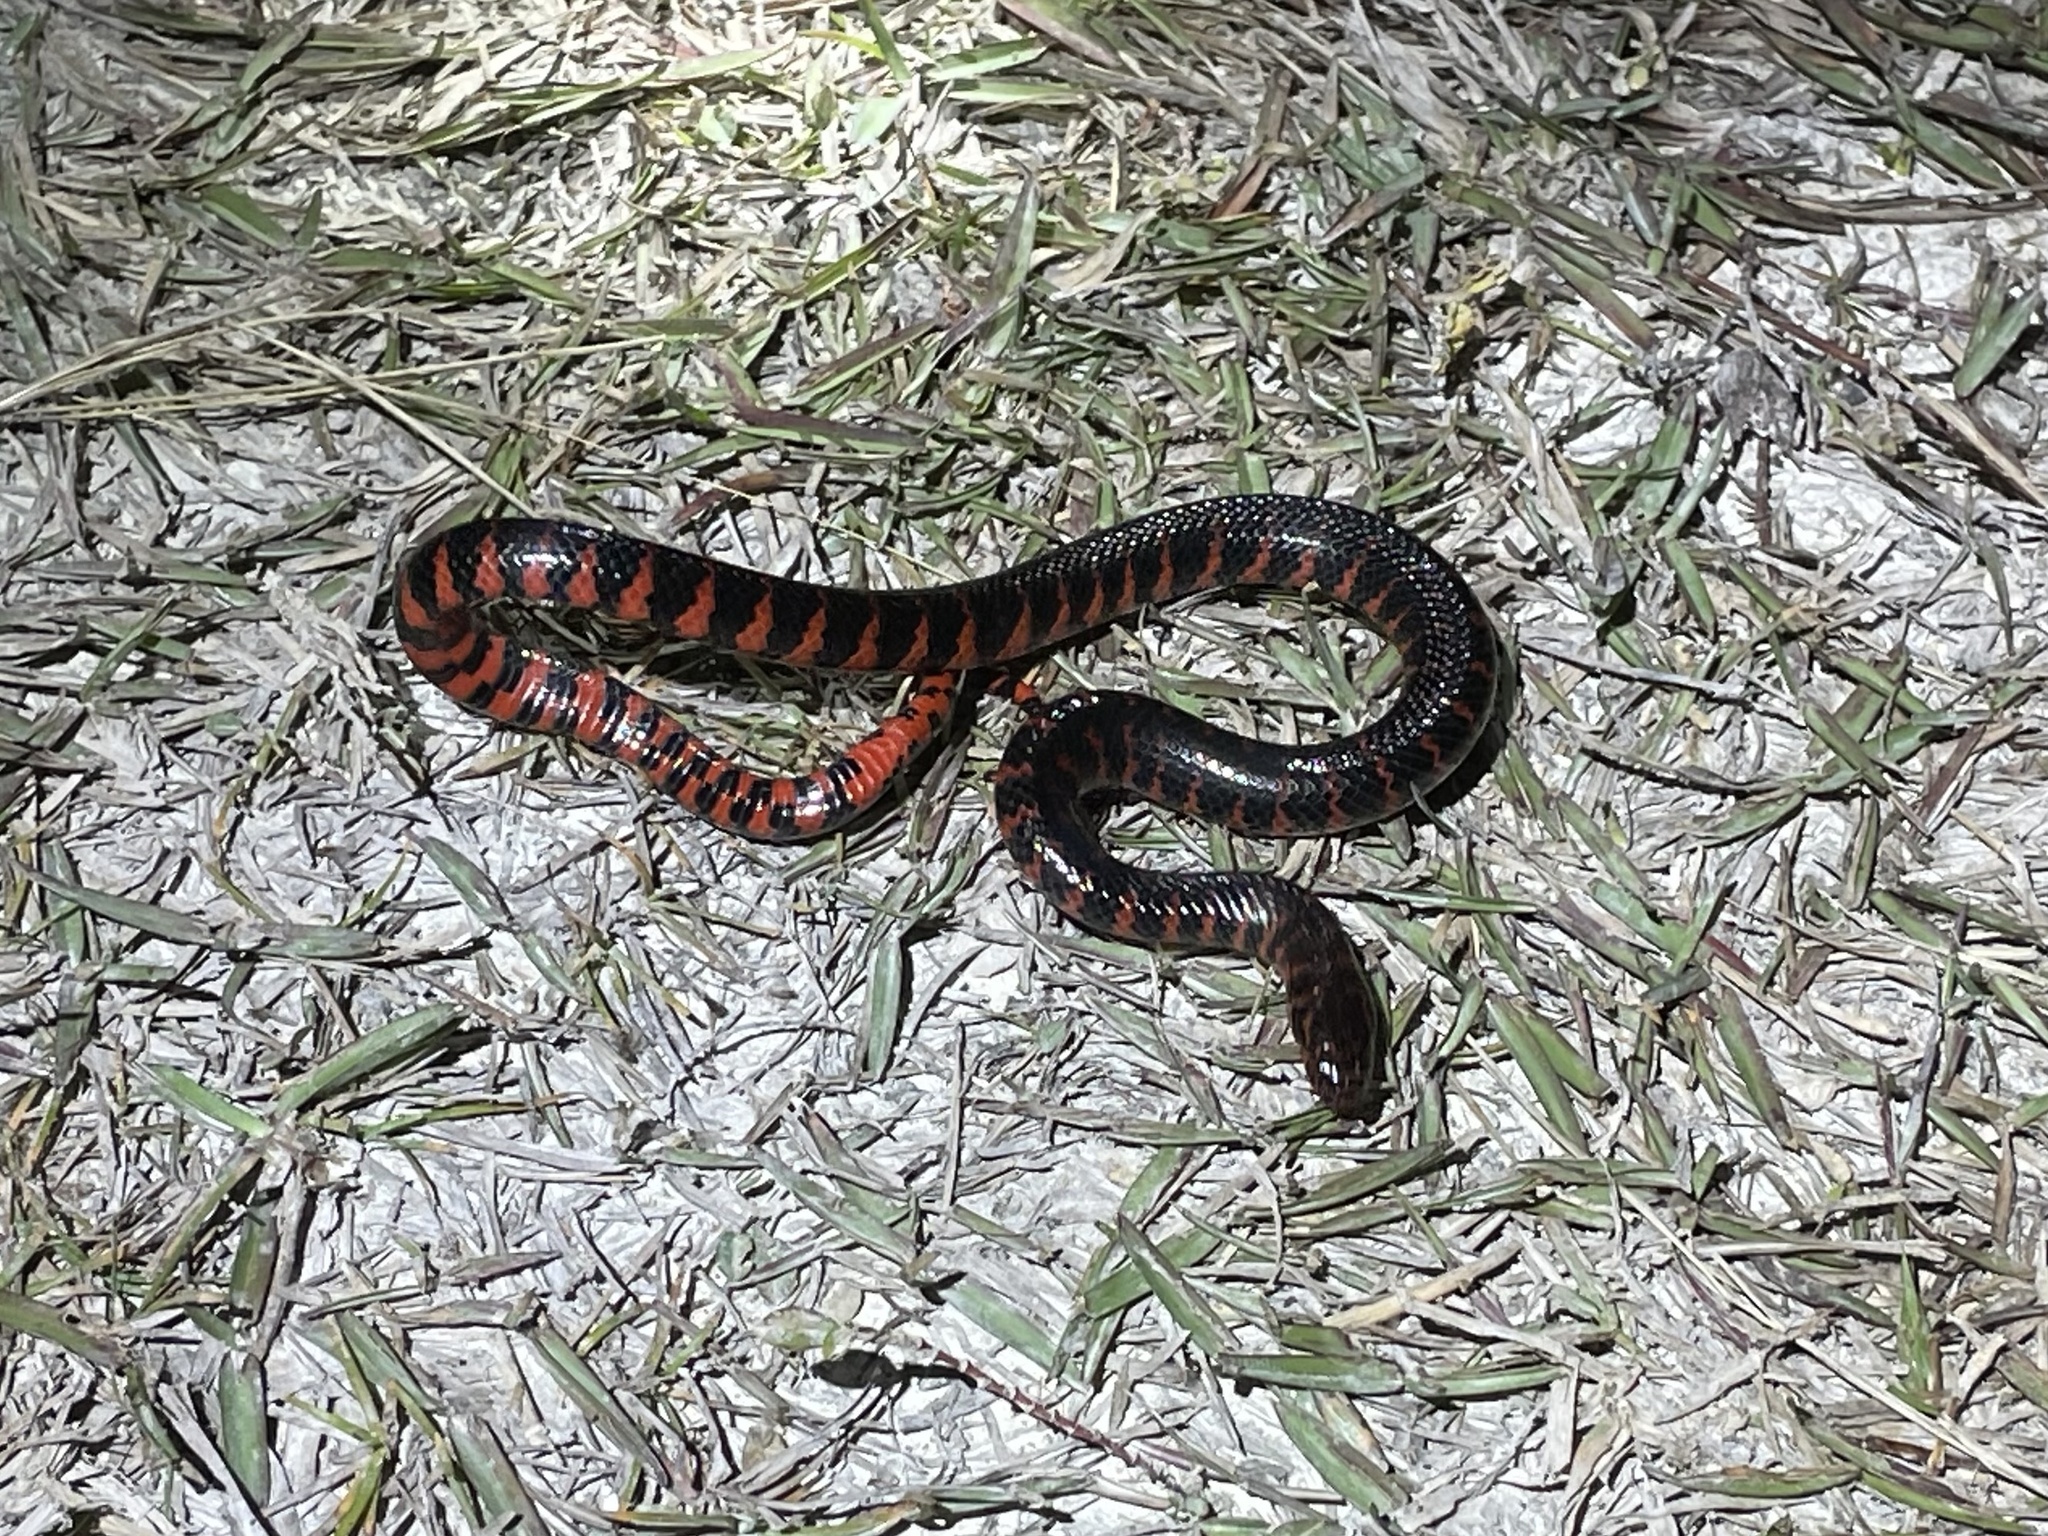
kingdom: Animalia
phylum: Chordata
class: Squamata
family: Colubridae
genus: Farancia
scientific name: Farancia abacura
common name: Mud snake
